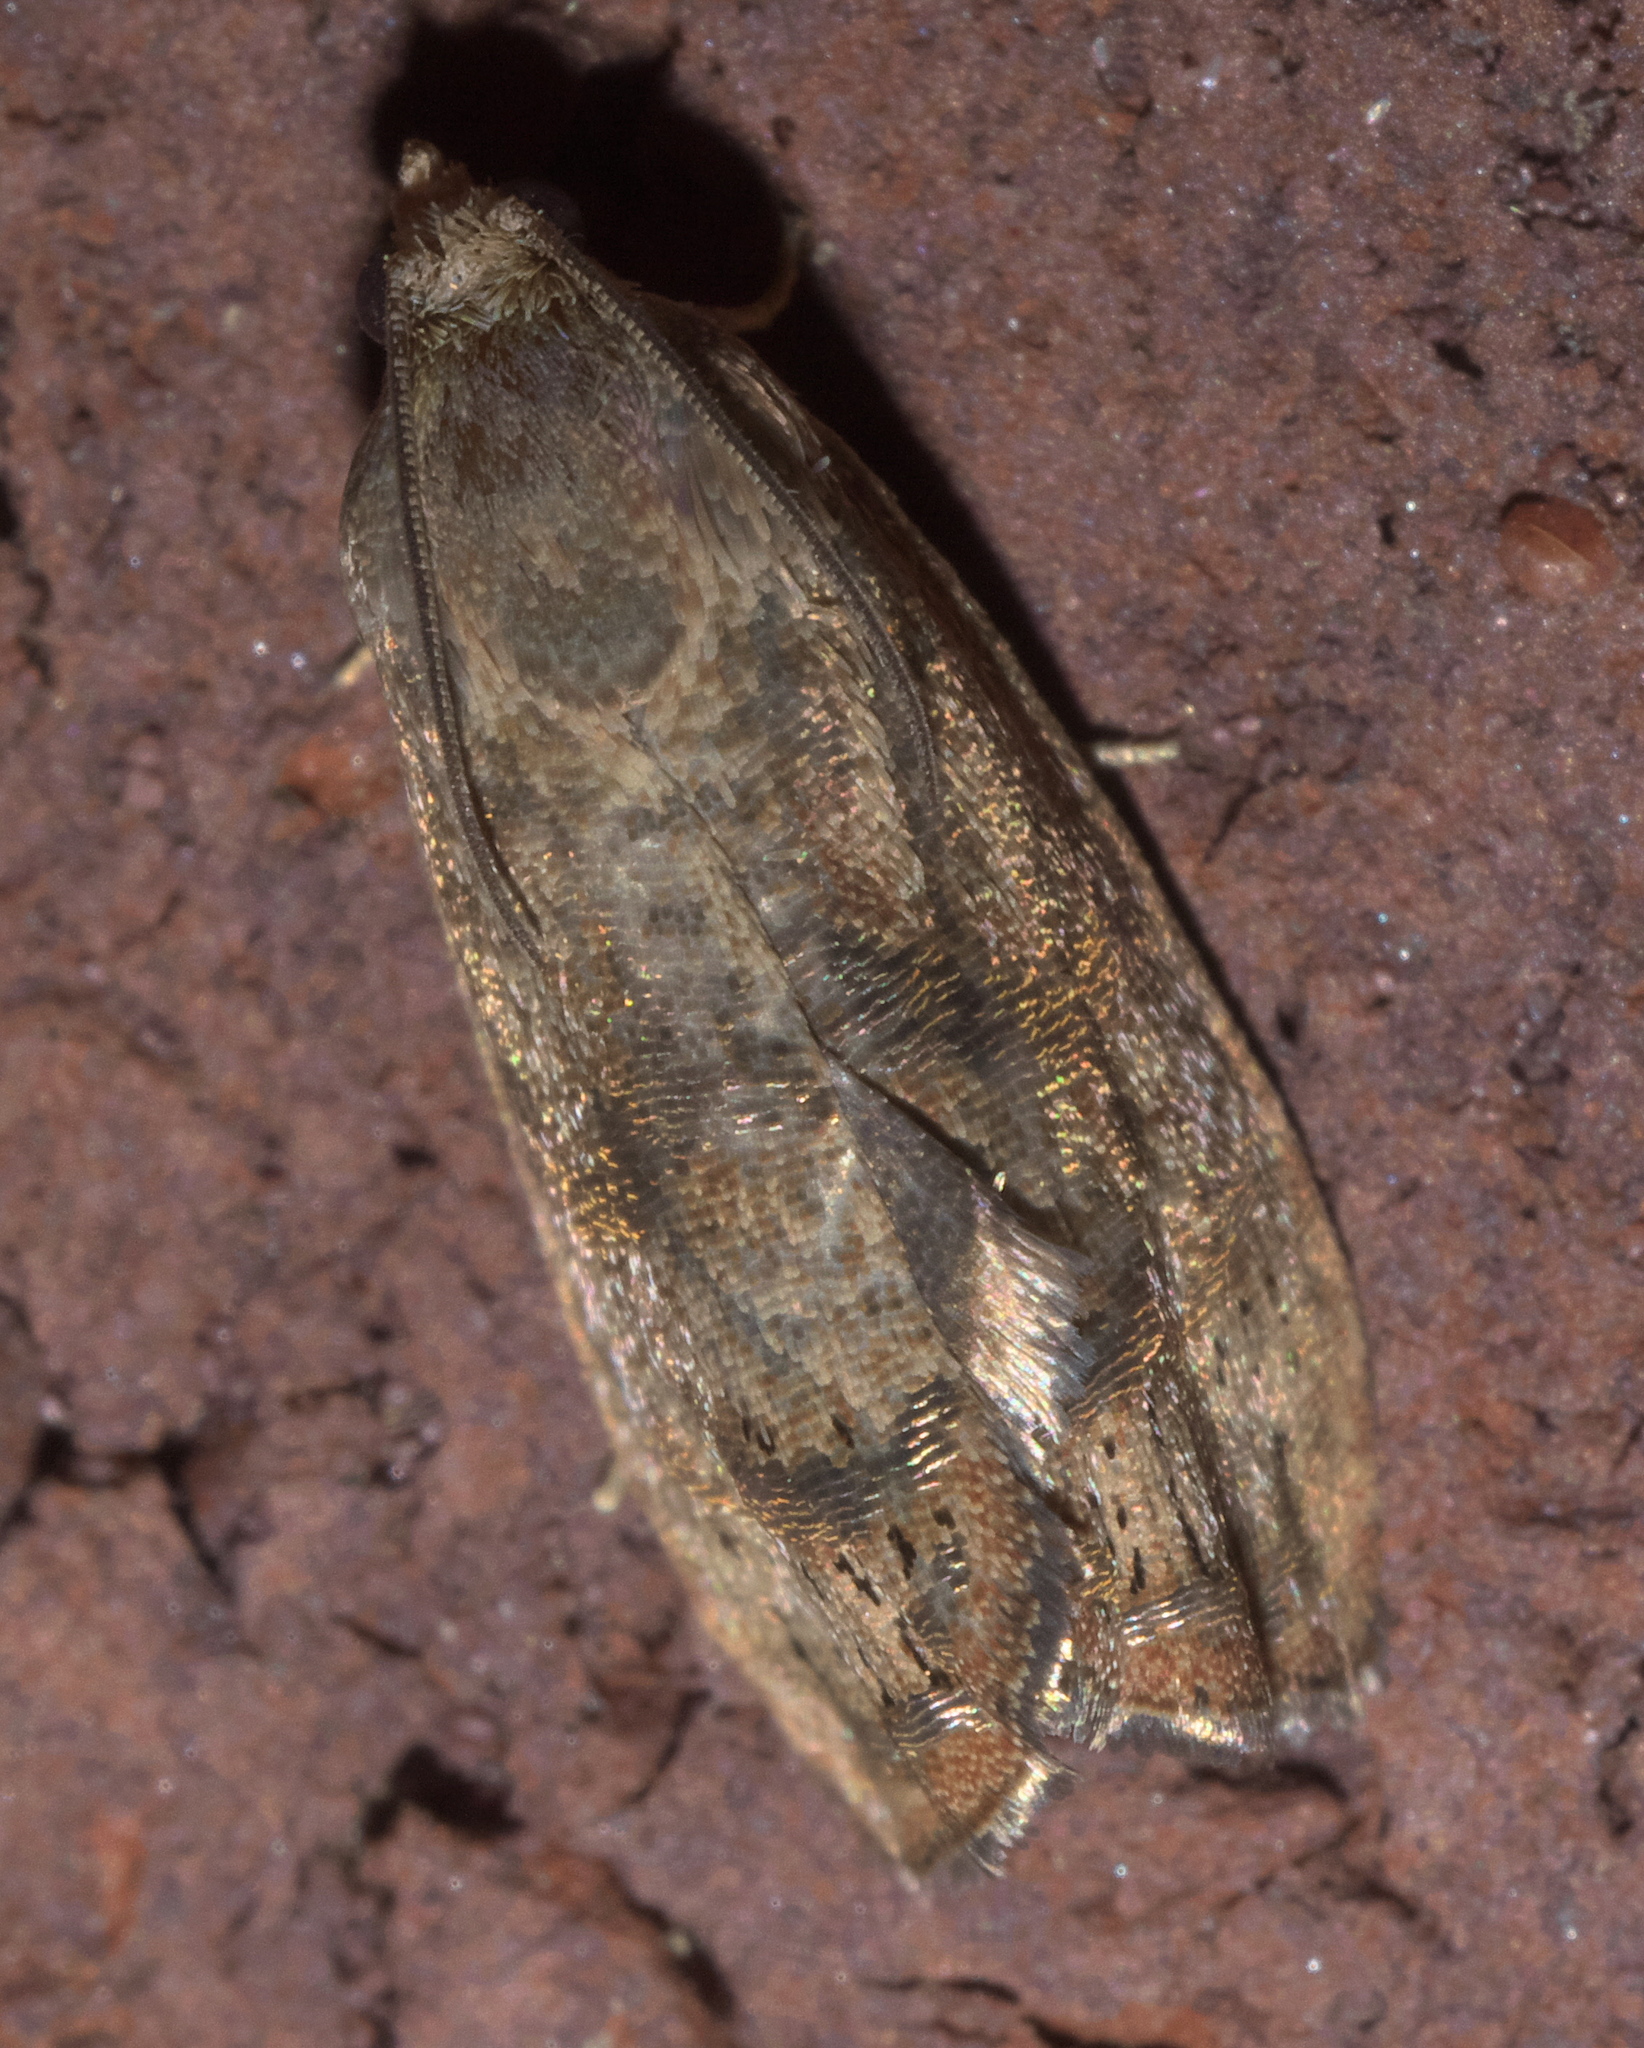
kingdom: Animalia
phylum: Arthropoda
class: Insecta
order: Lepidoptera
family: Tortricidae
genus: Cydia
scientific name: Cydia latiferreana
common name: Filbertworm moth
